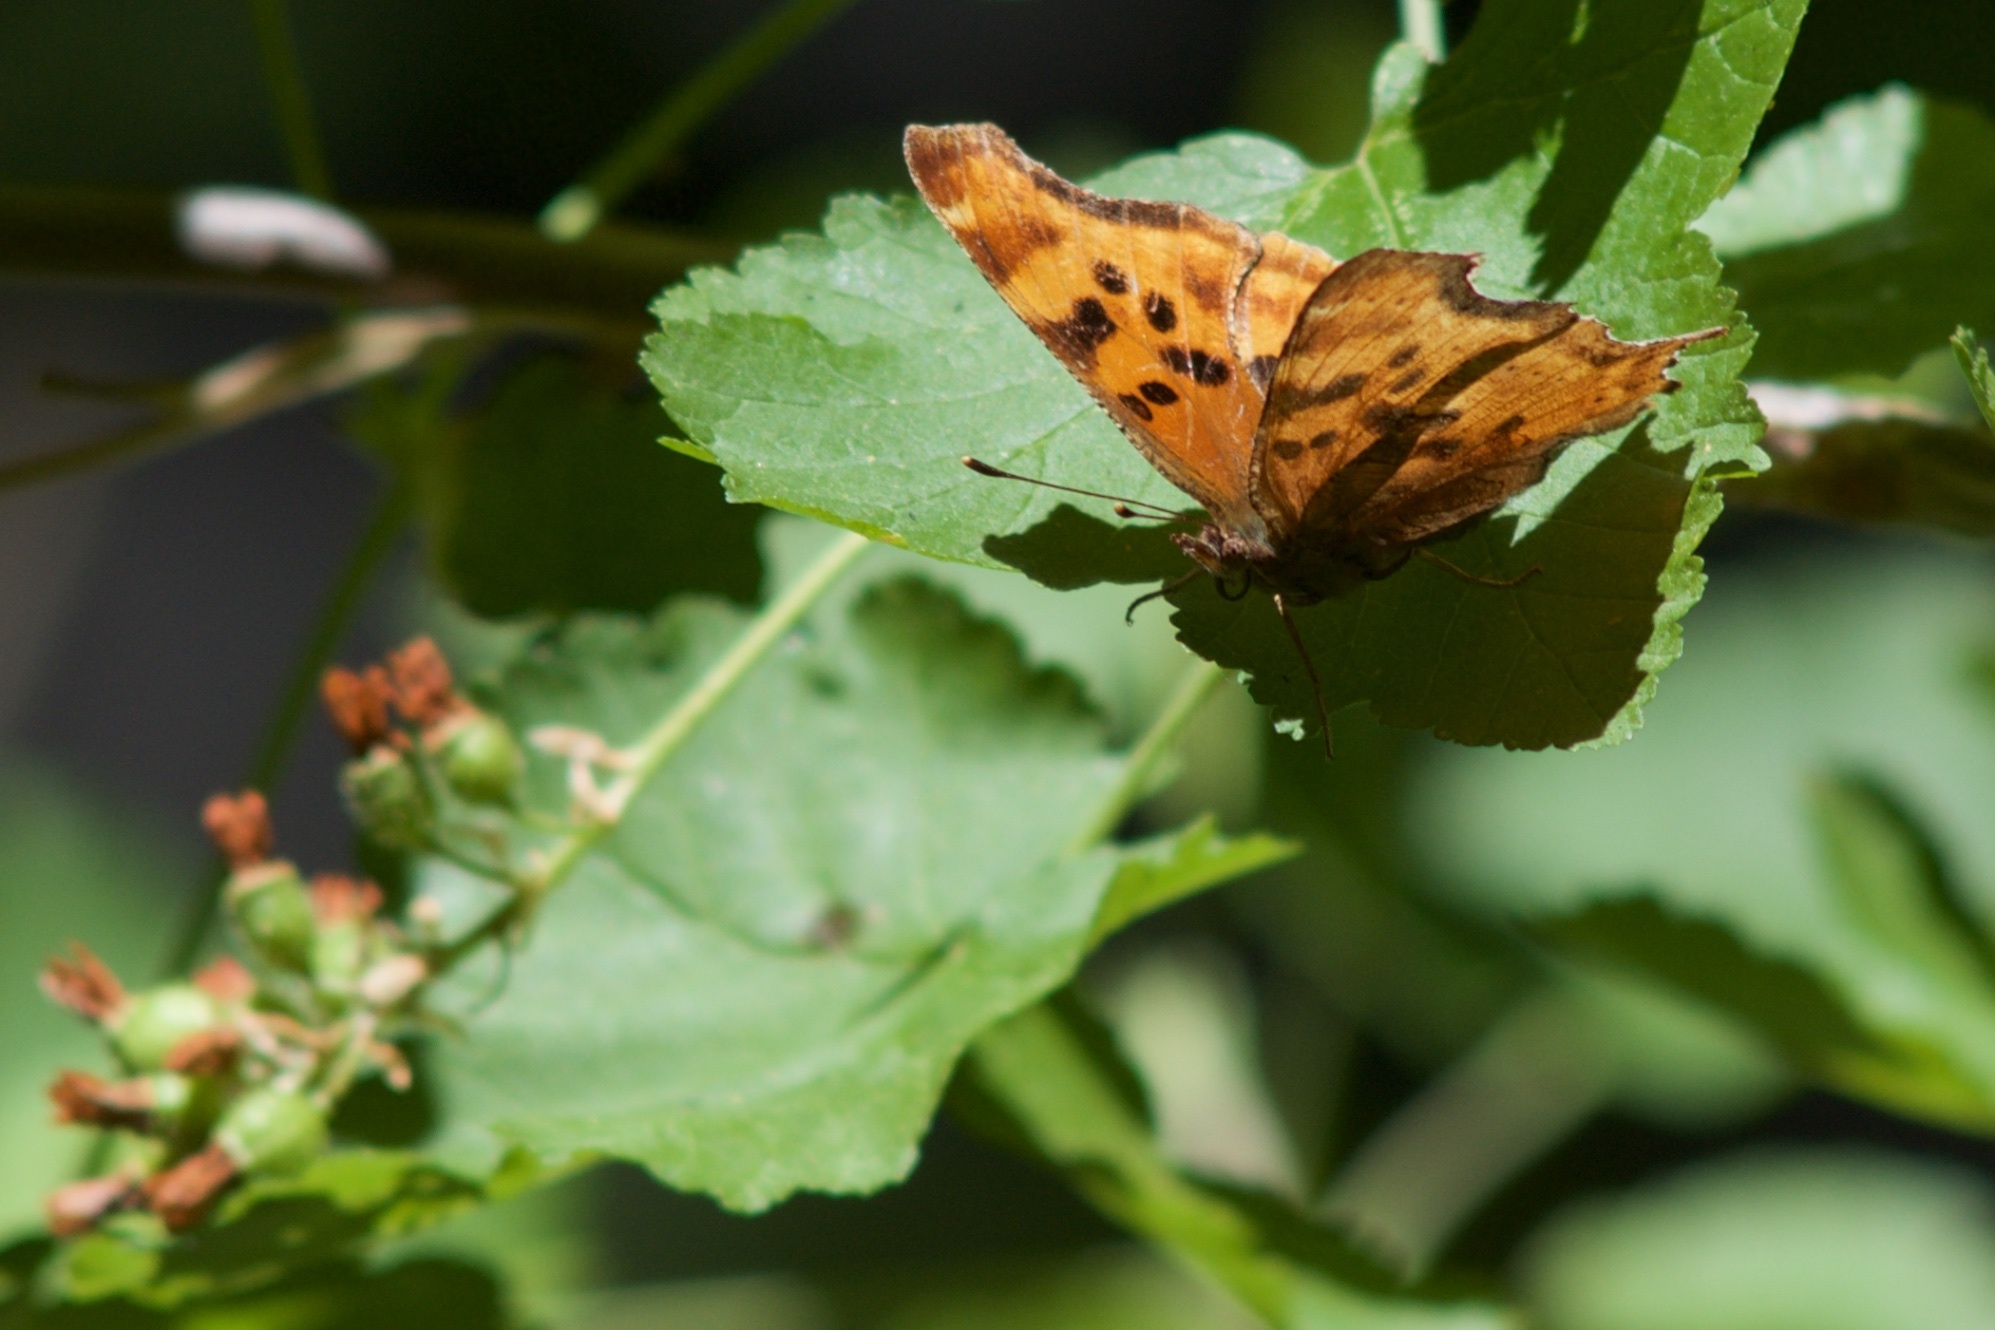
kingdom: Animalia
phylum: Arthropoda
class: Insecta
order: Lepidoptera
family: Nymphalidae
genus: Polygonia
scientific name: Polygonia satyrus
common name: Satyr angle wing
